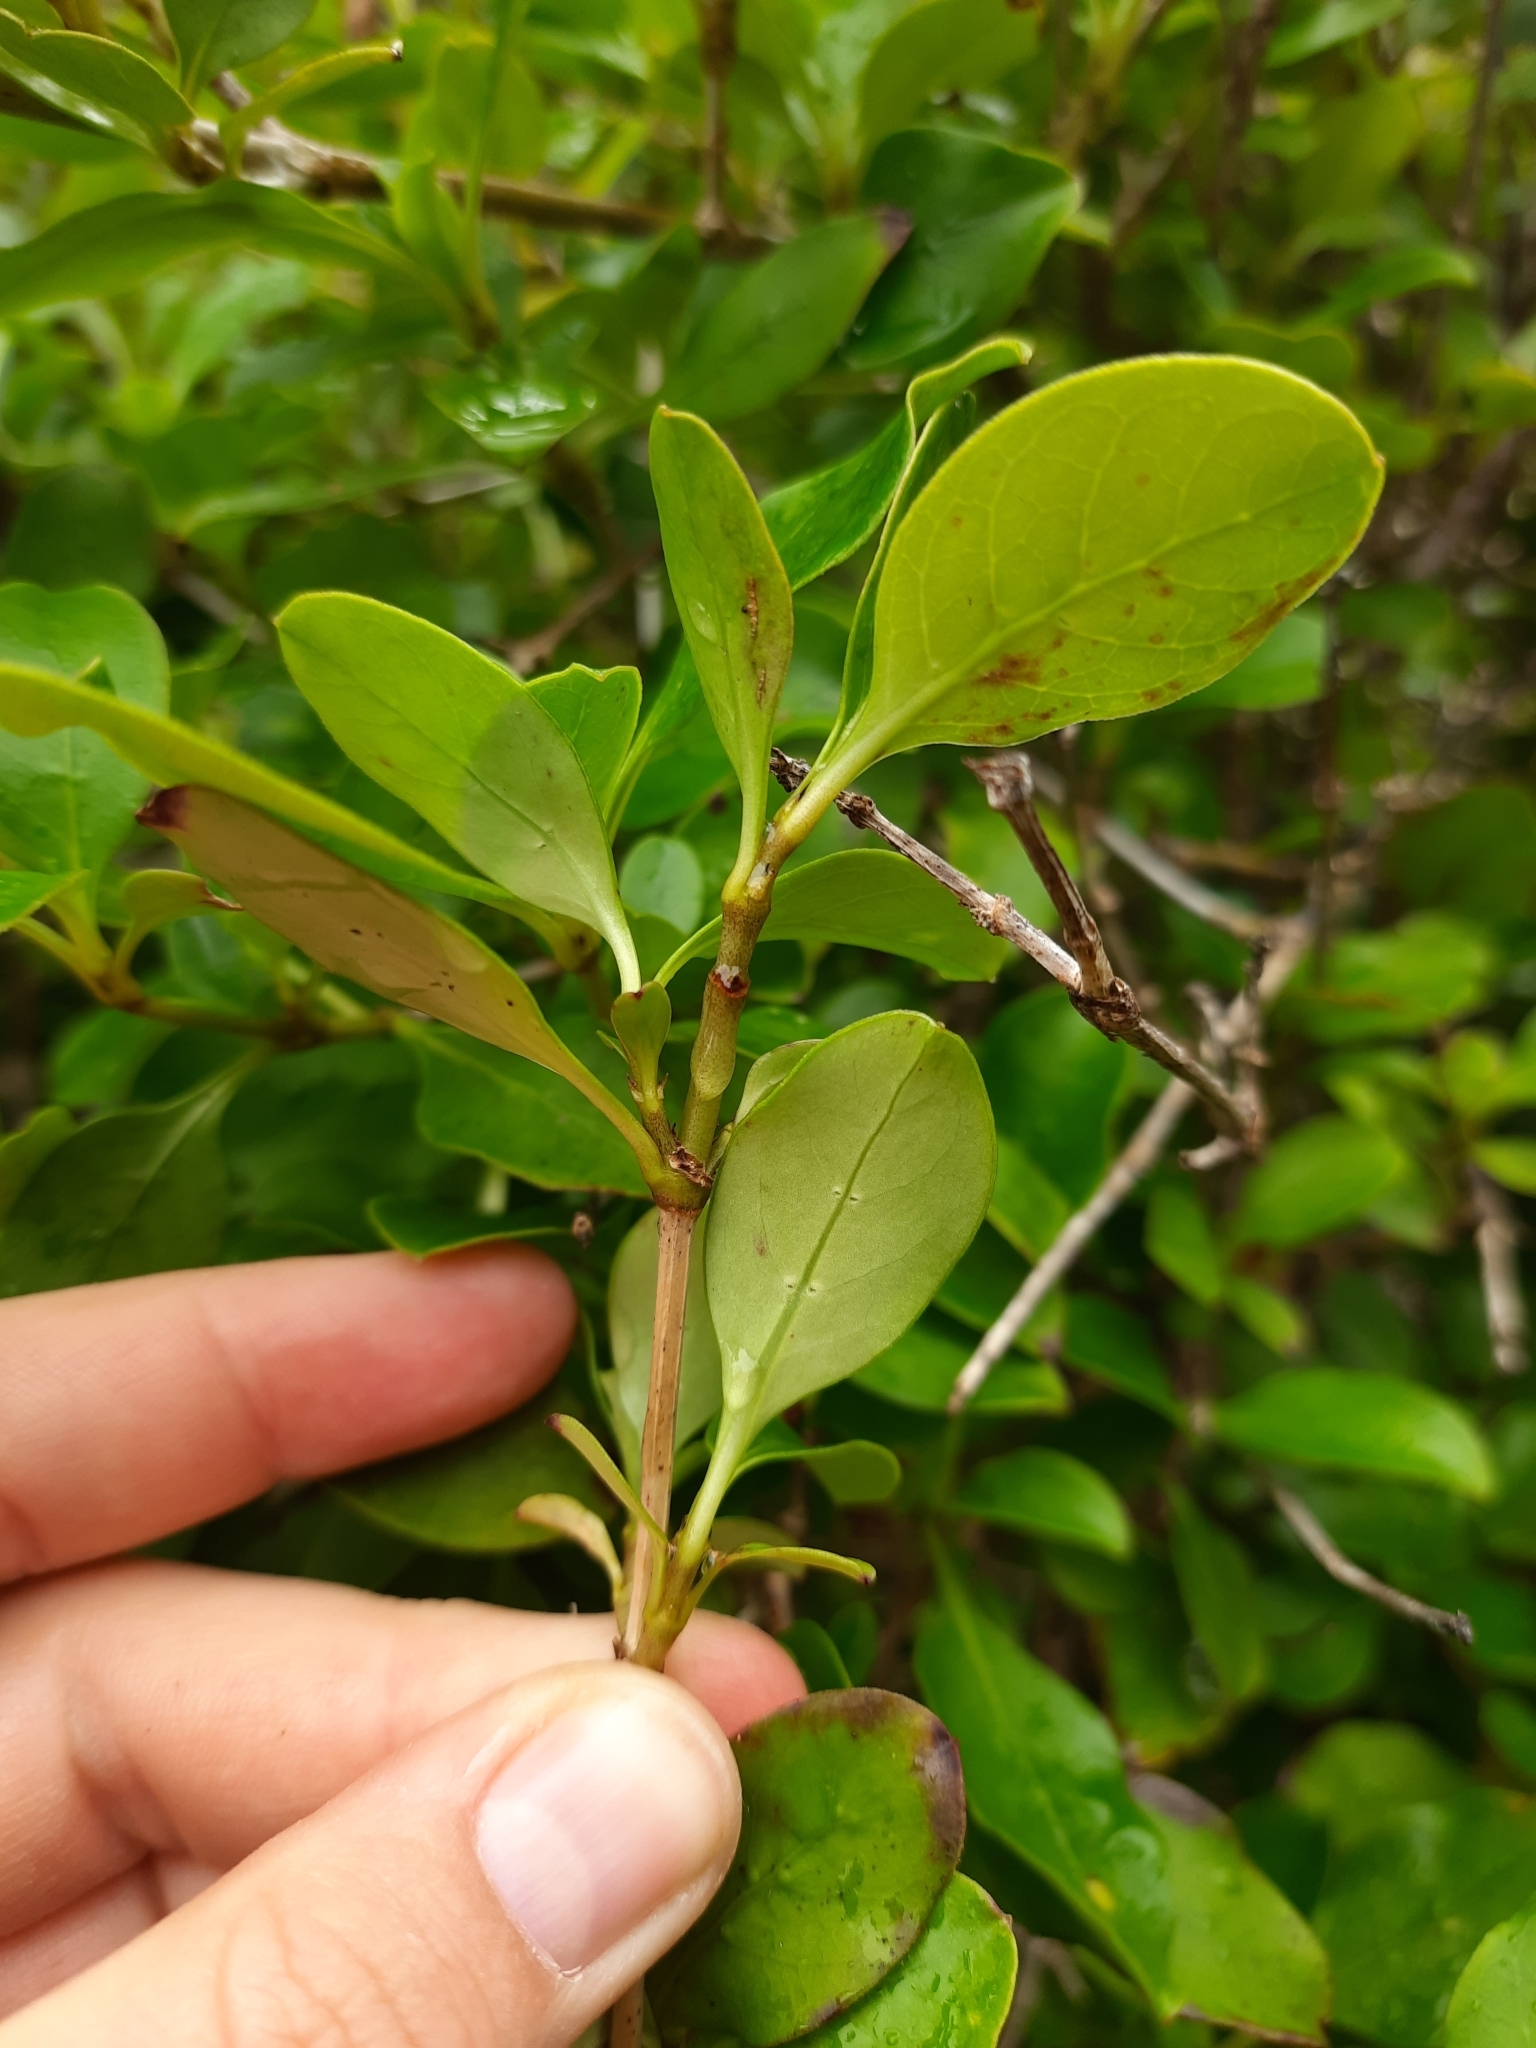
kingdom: Plantae
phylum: Tracheophyta
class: Magnoliopsida
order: Gentianales
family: Rubiaceae
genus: Coprosma
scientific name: Coprosma foetidissima
